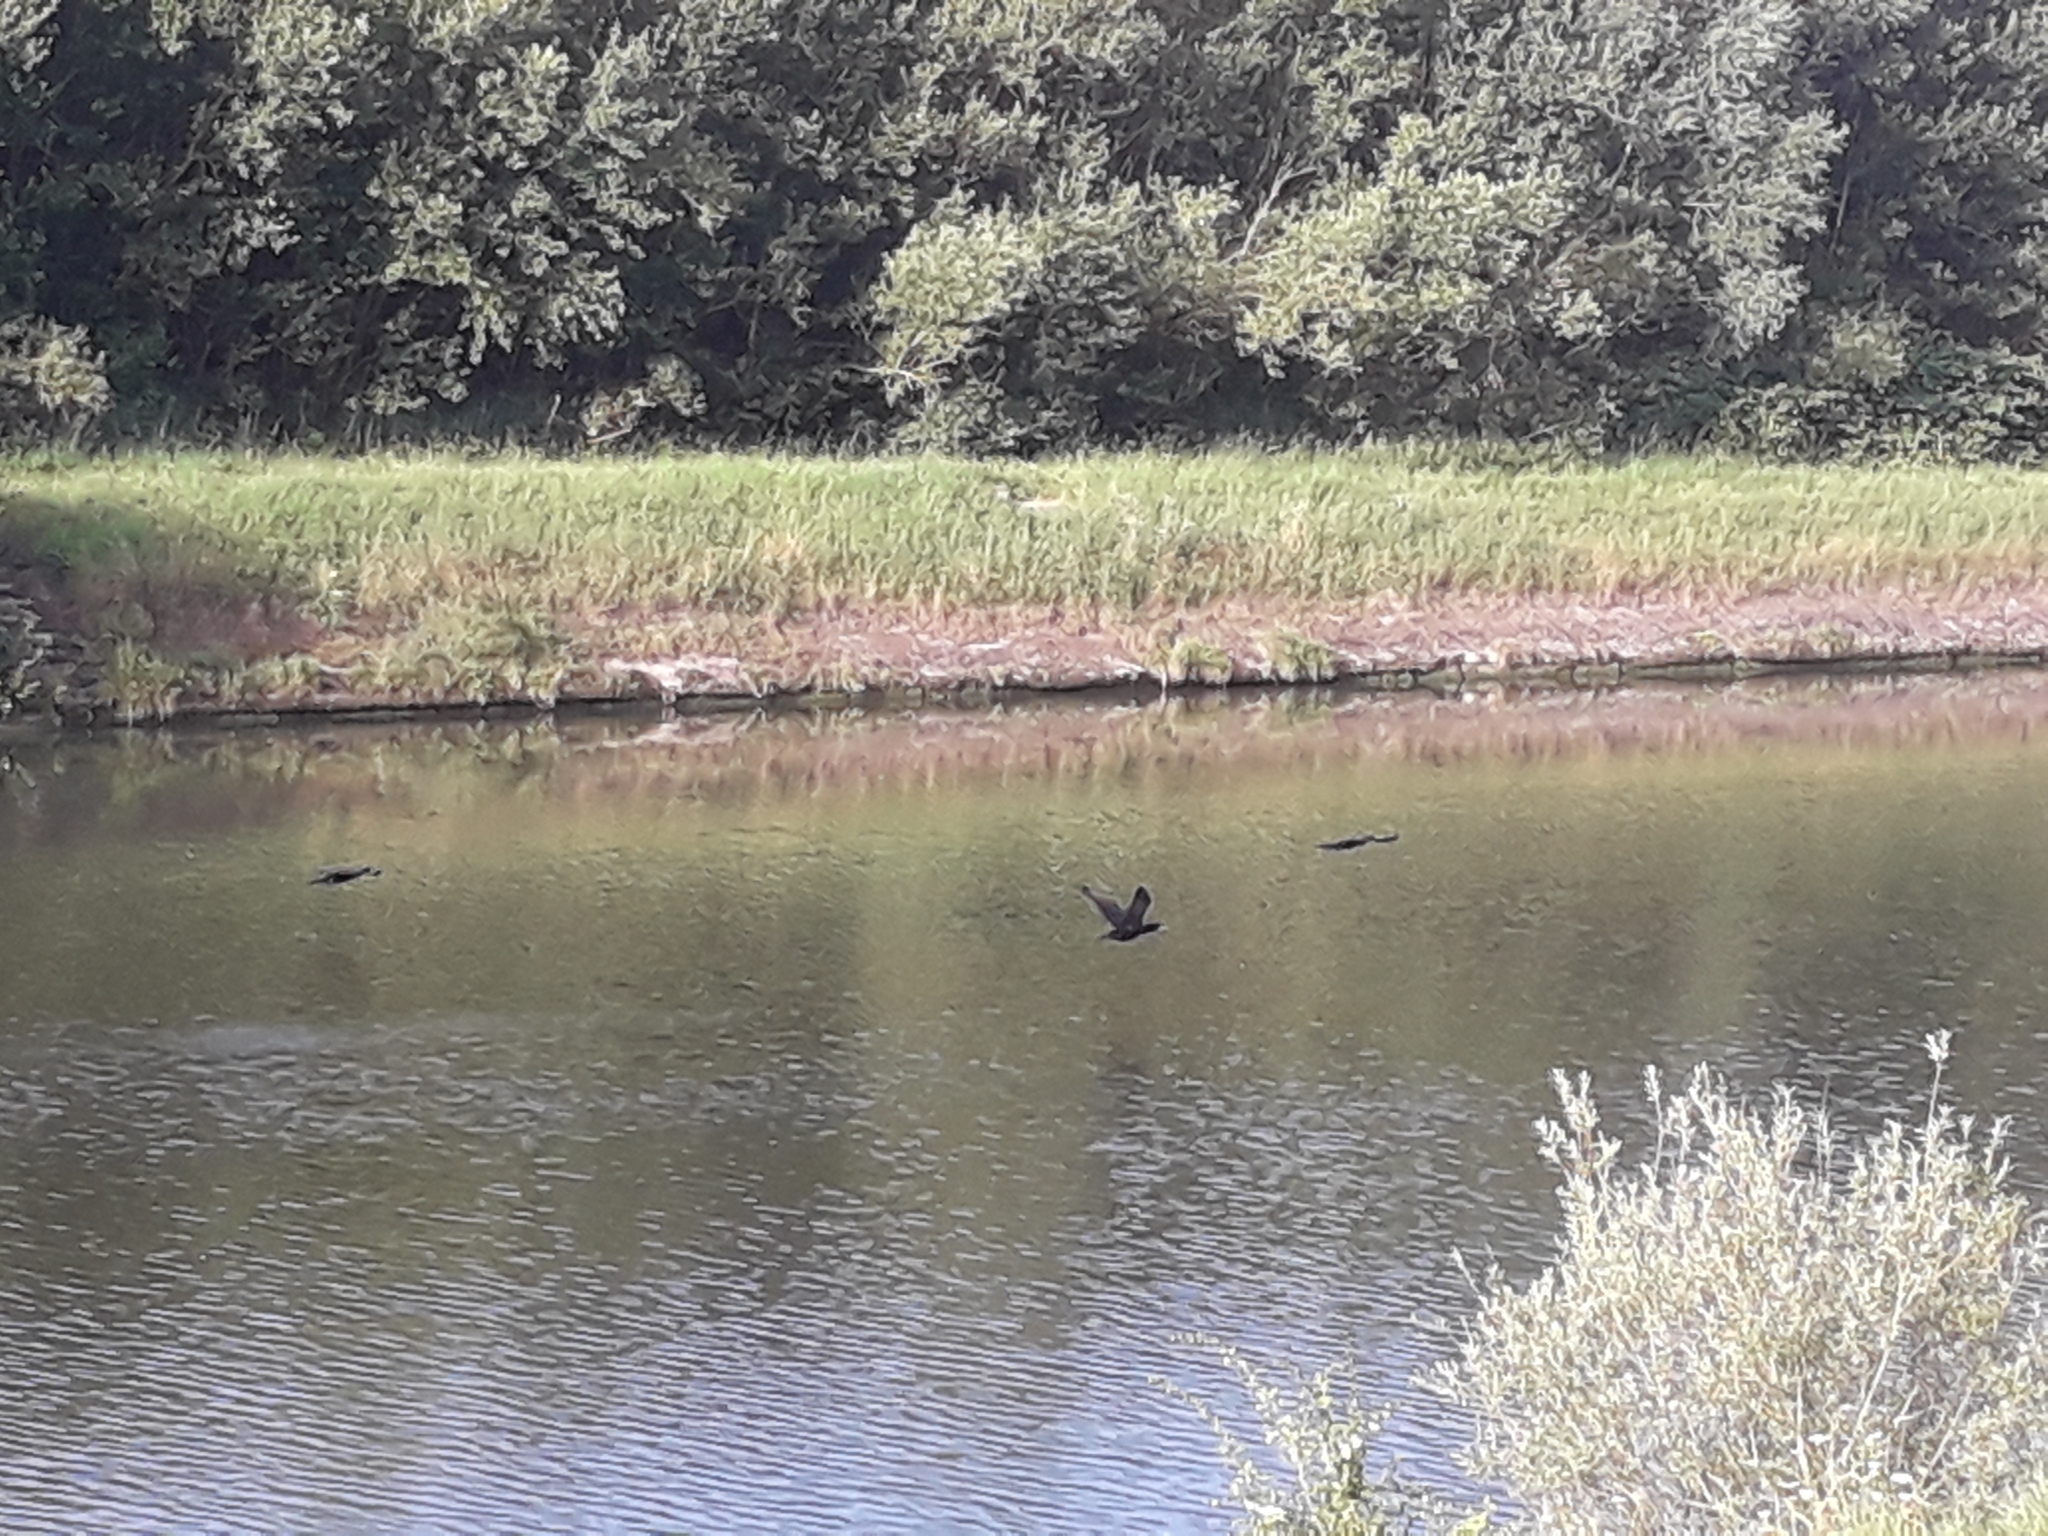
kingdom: Animalia
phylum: Chordata
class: Aves
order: Suliformes
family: Phalacrocoracidae
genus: Phalacrocorax
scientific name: Phalacrocorax carbo
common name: Great cormorant
